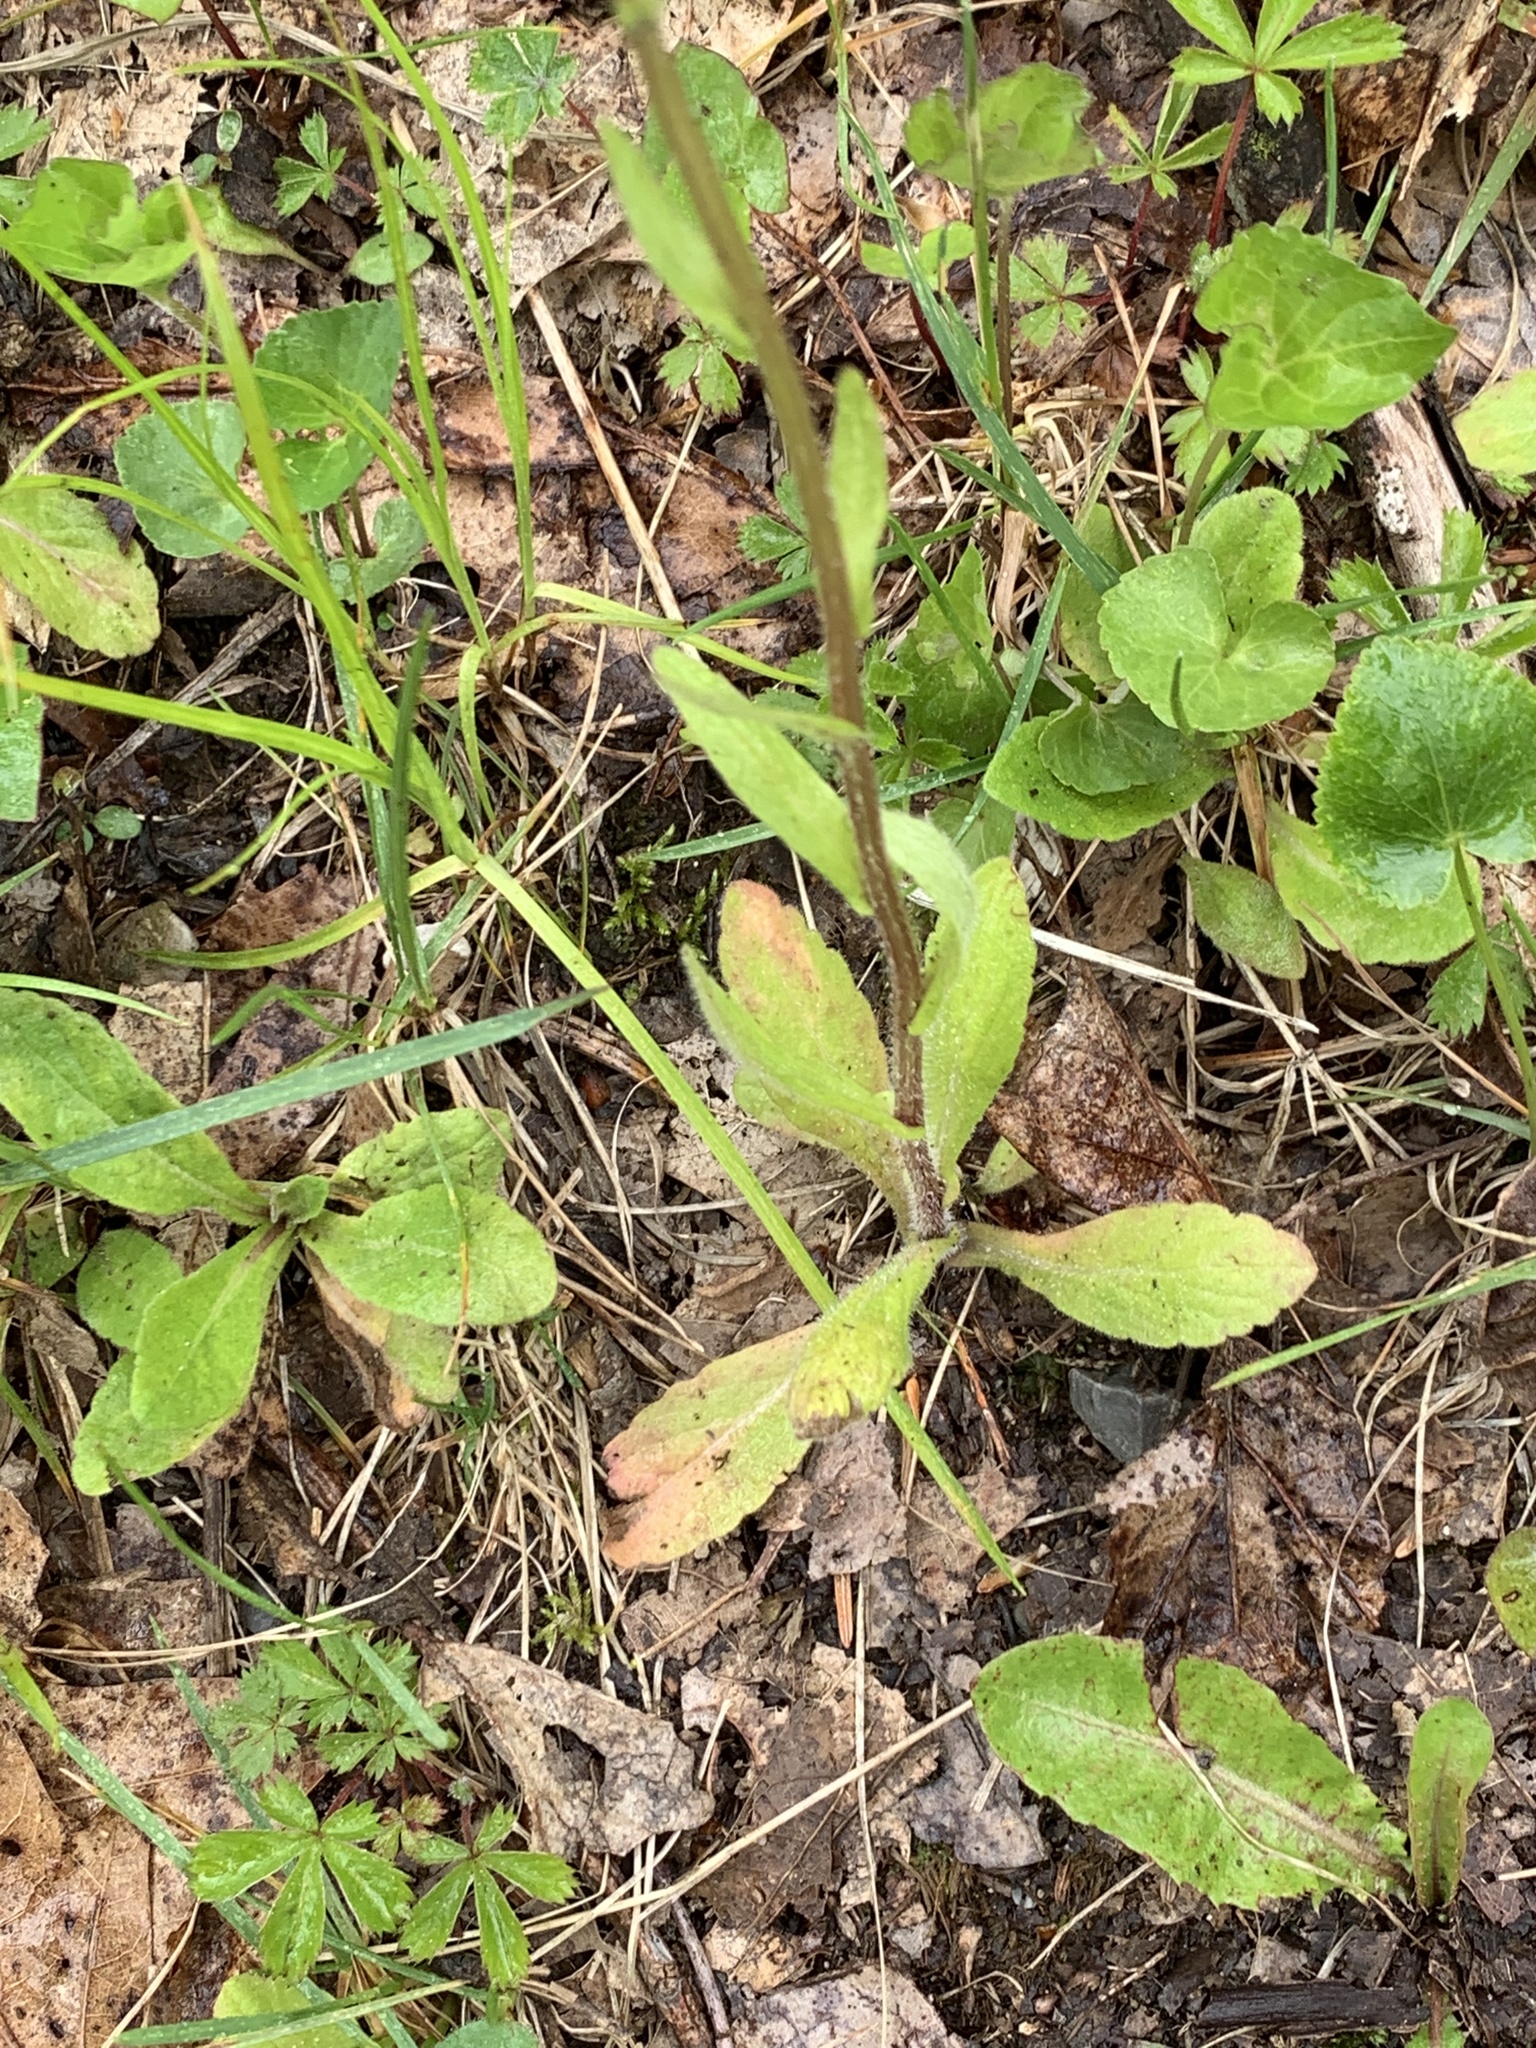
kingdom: Plantae
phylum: Tracheophyta
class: Magnoliopsida
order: Asterales
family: Asteraceae
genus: Erigeron
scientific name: Erigeron philadelphicus
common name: Robin's-plantain
